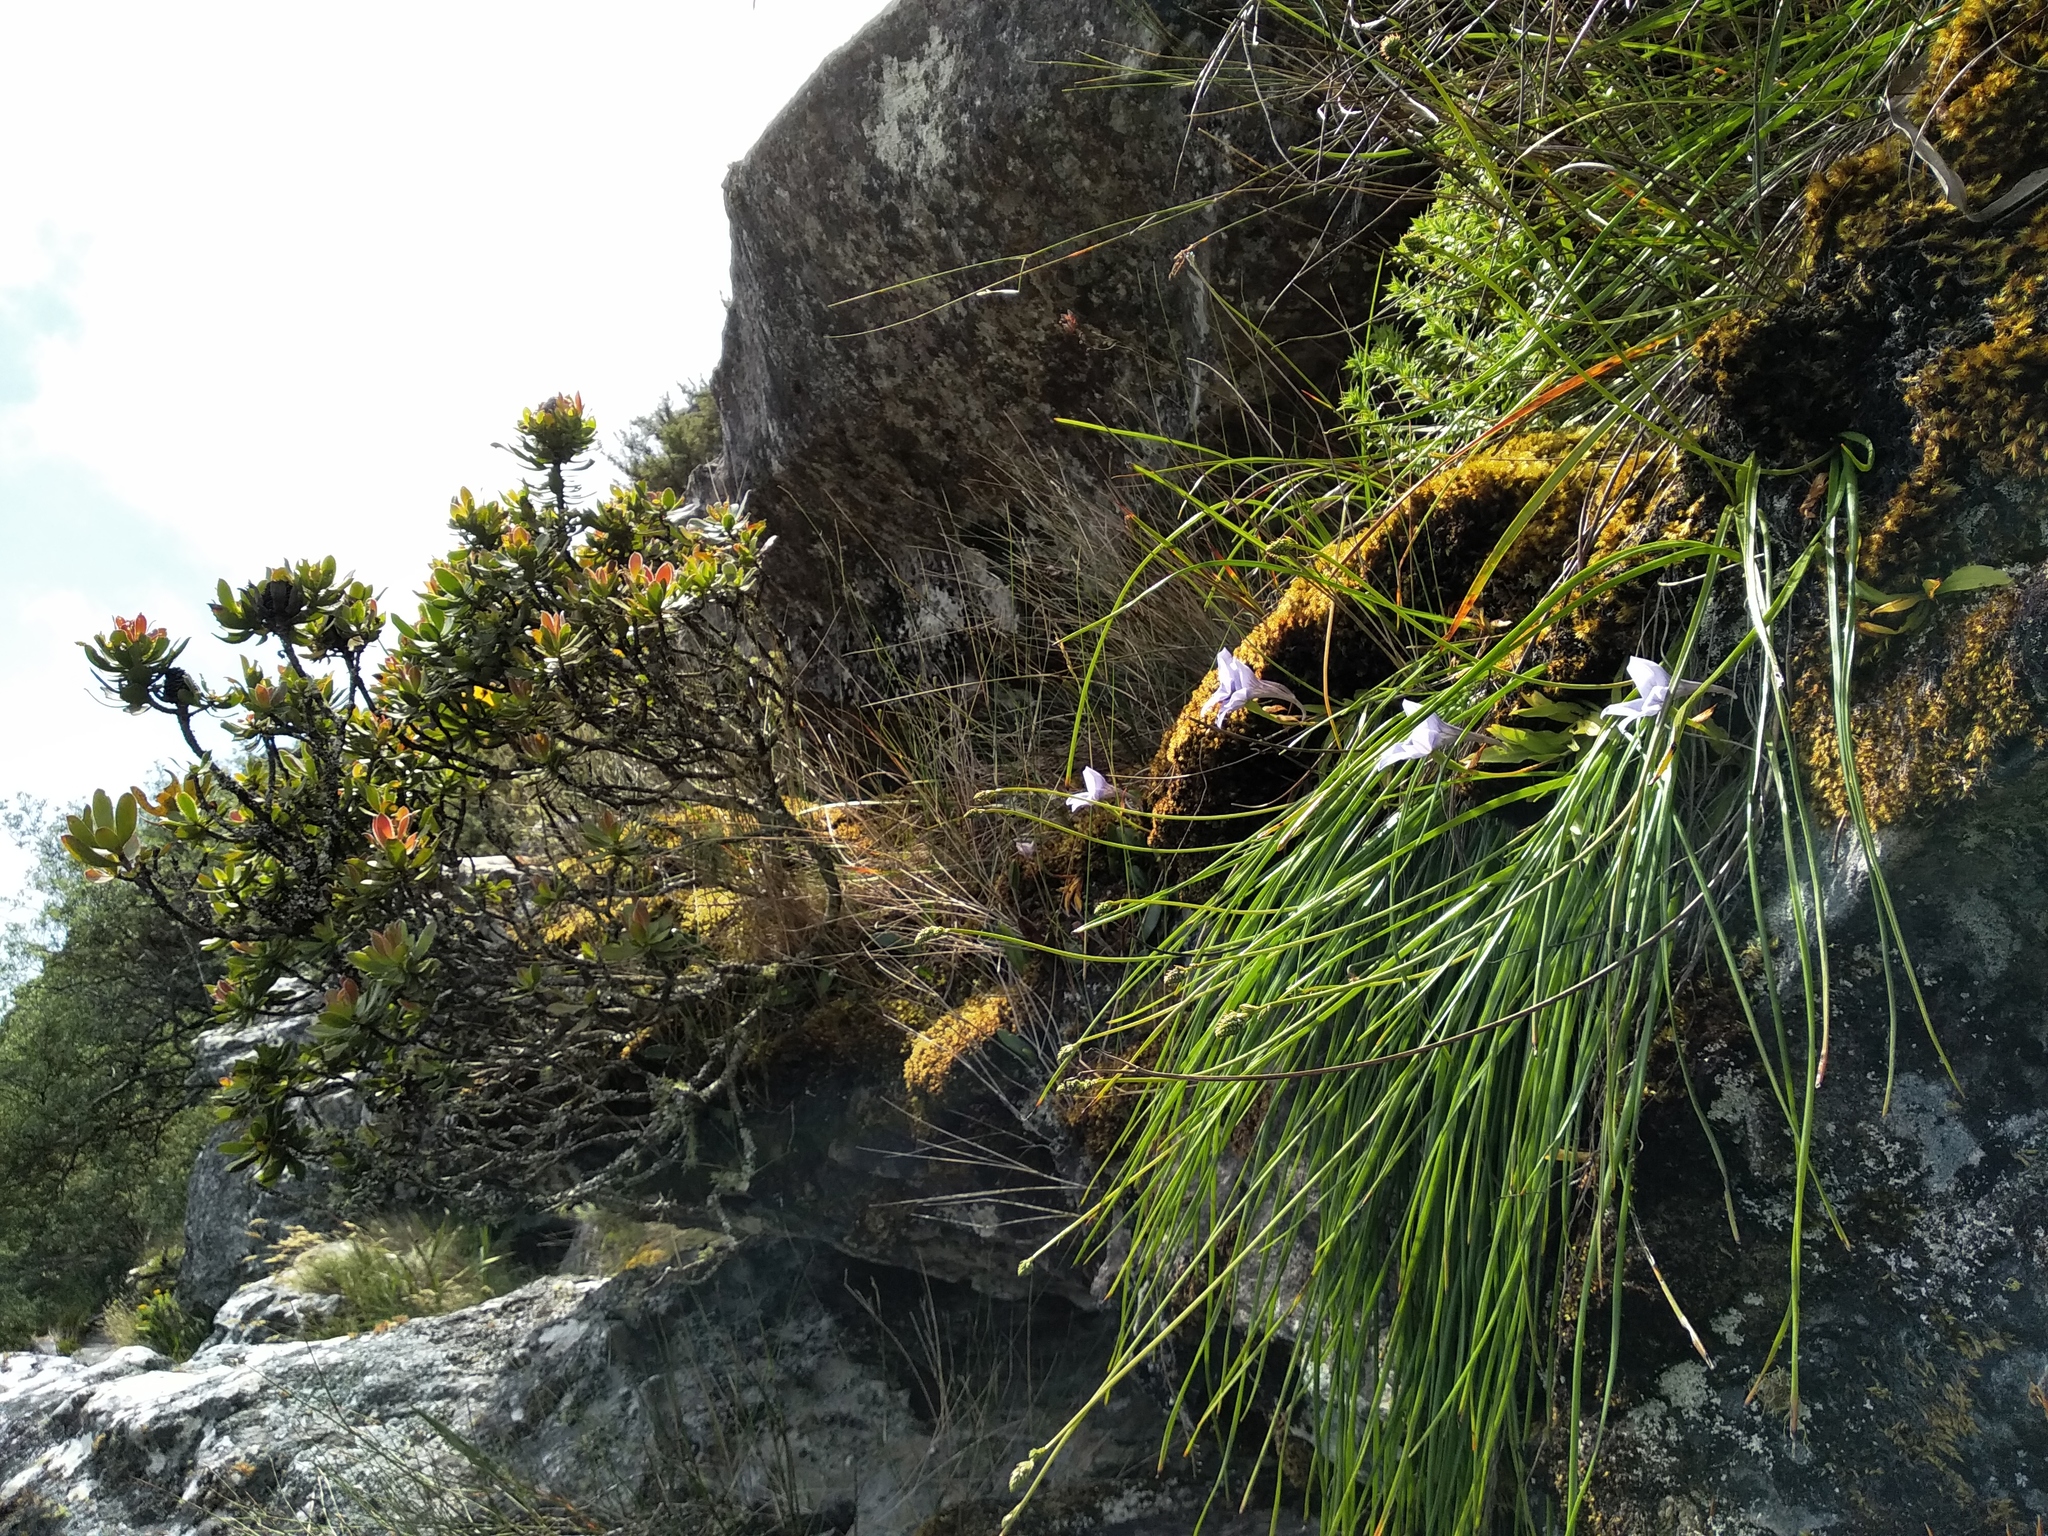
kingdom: Plantae
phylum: Tracheophyta
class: Liliopsida
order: Asparagales
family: Orchidaceae
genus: Disa
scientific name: Disa longicornu
